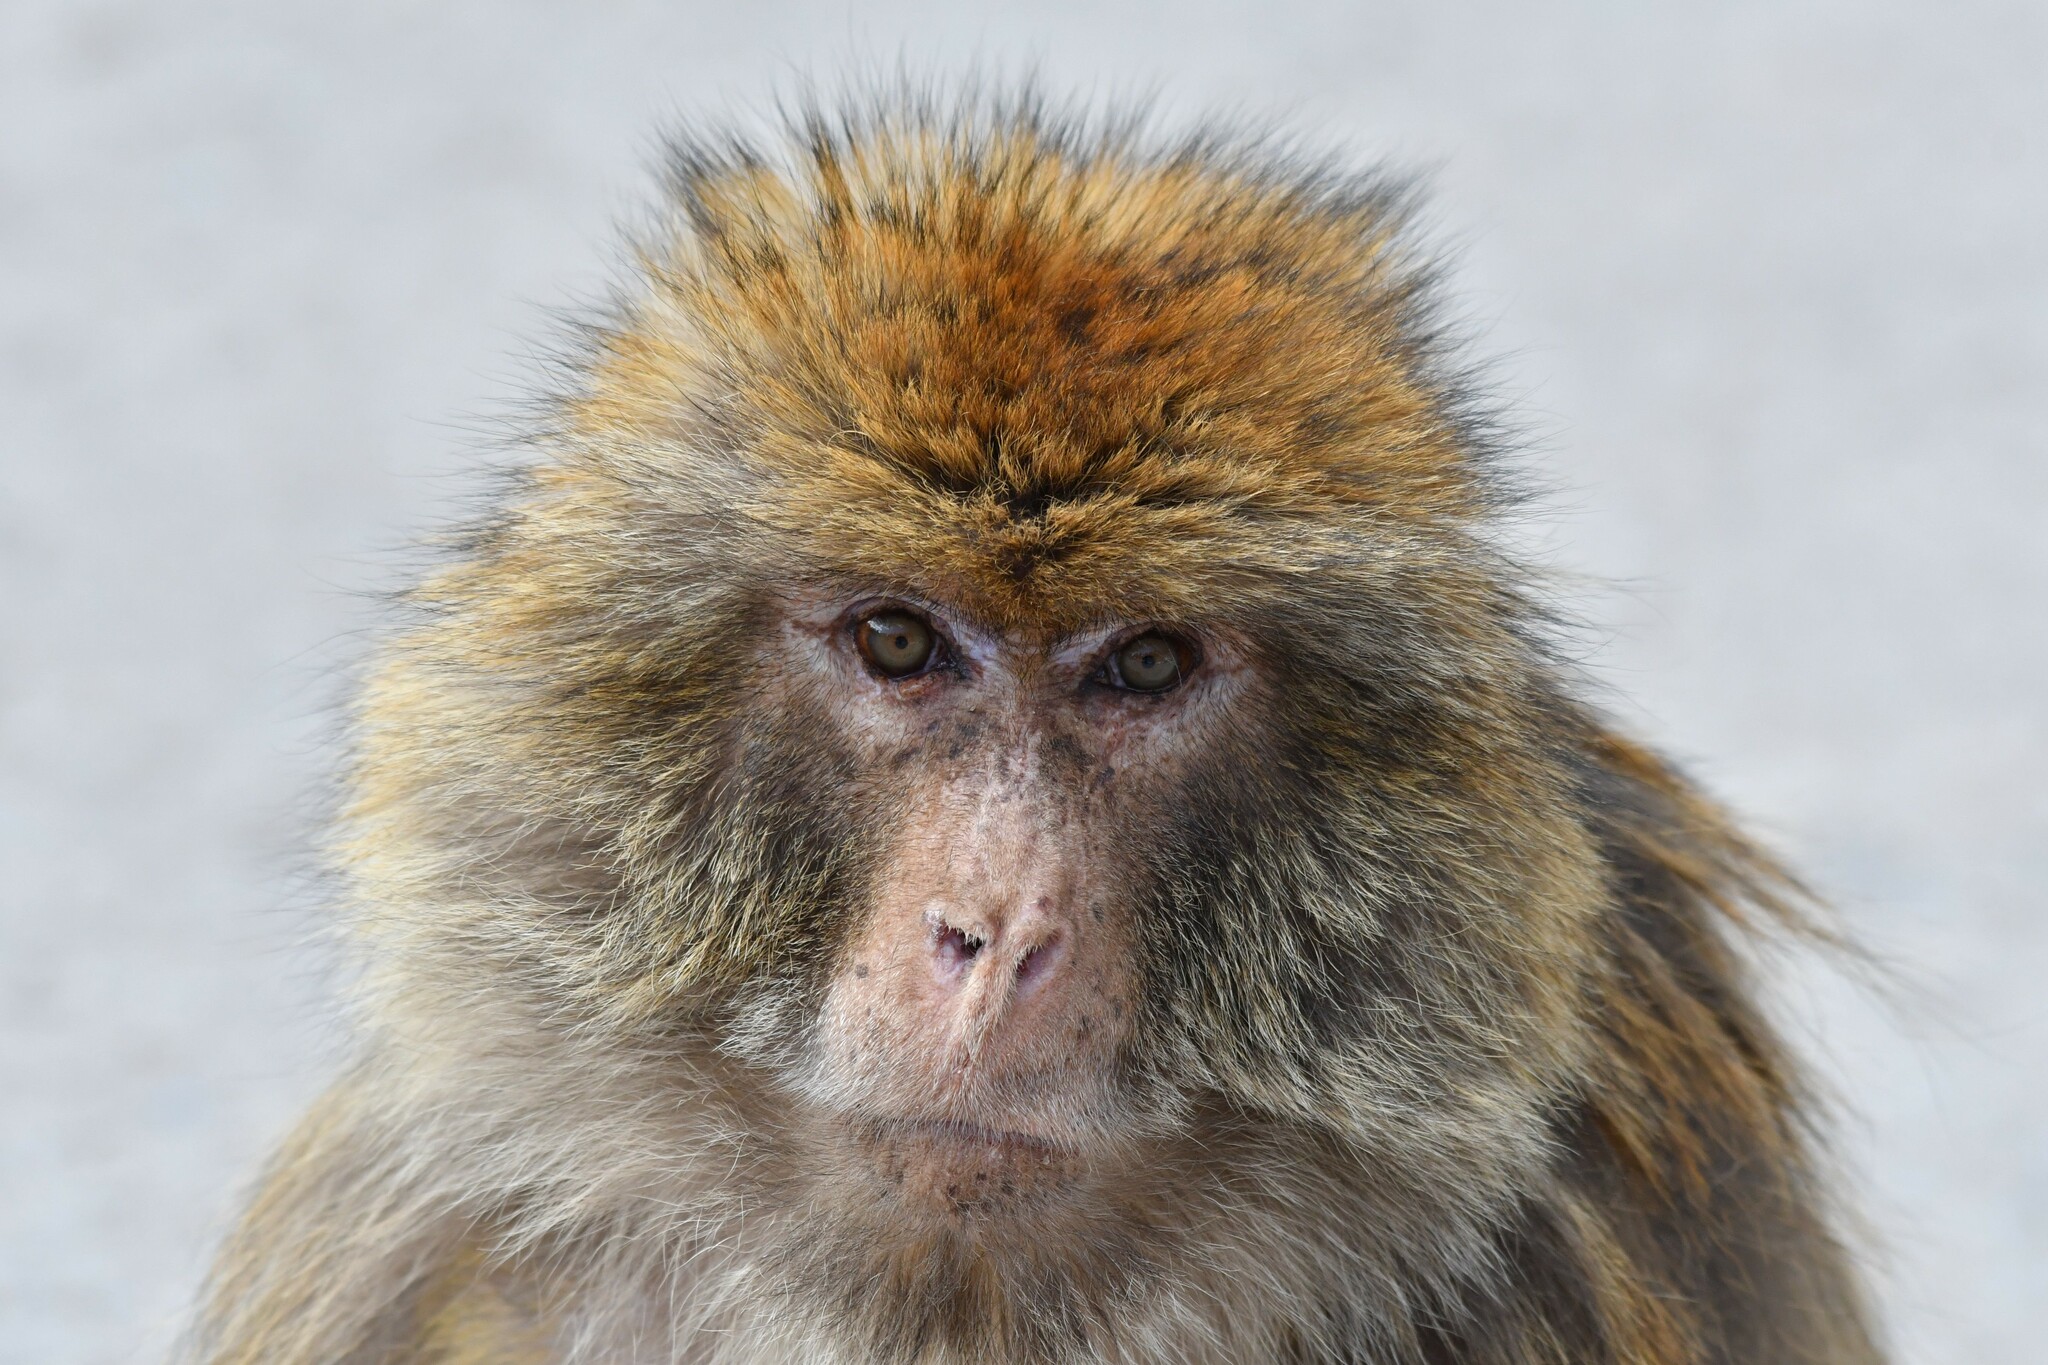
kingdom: Animalia
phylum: Chordata
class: Mammalia
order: Primates
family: Cercopithecidae
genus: Macaca
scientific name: Macaca sylvanus
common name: Barbary macaque
